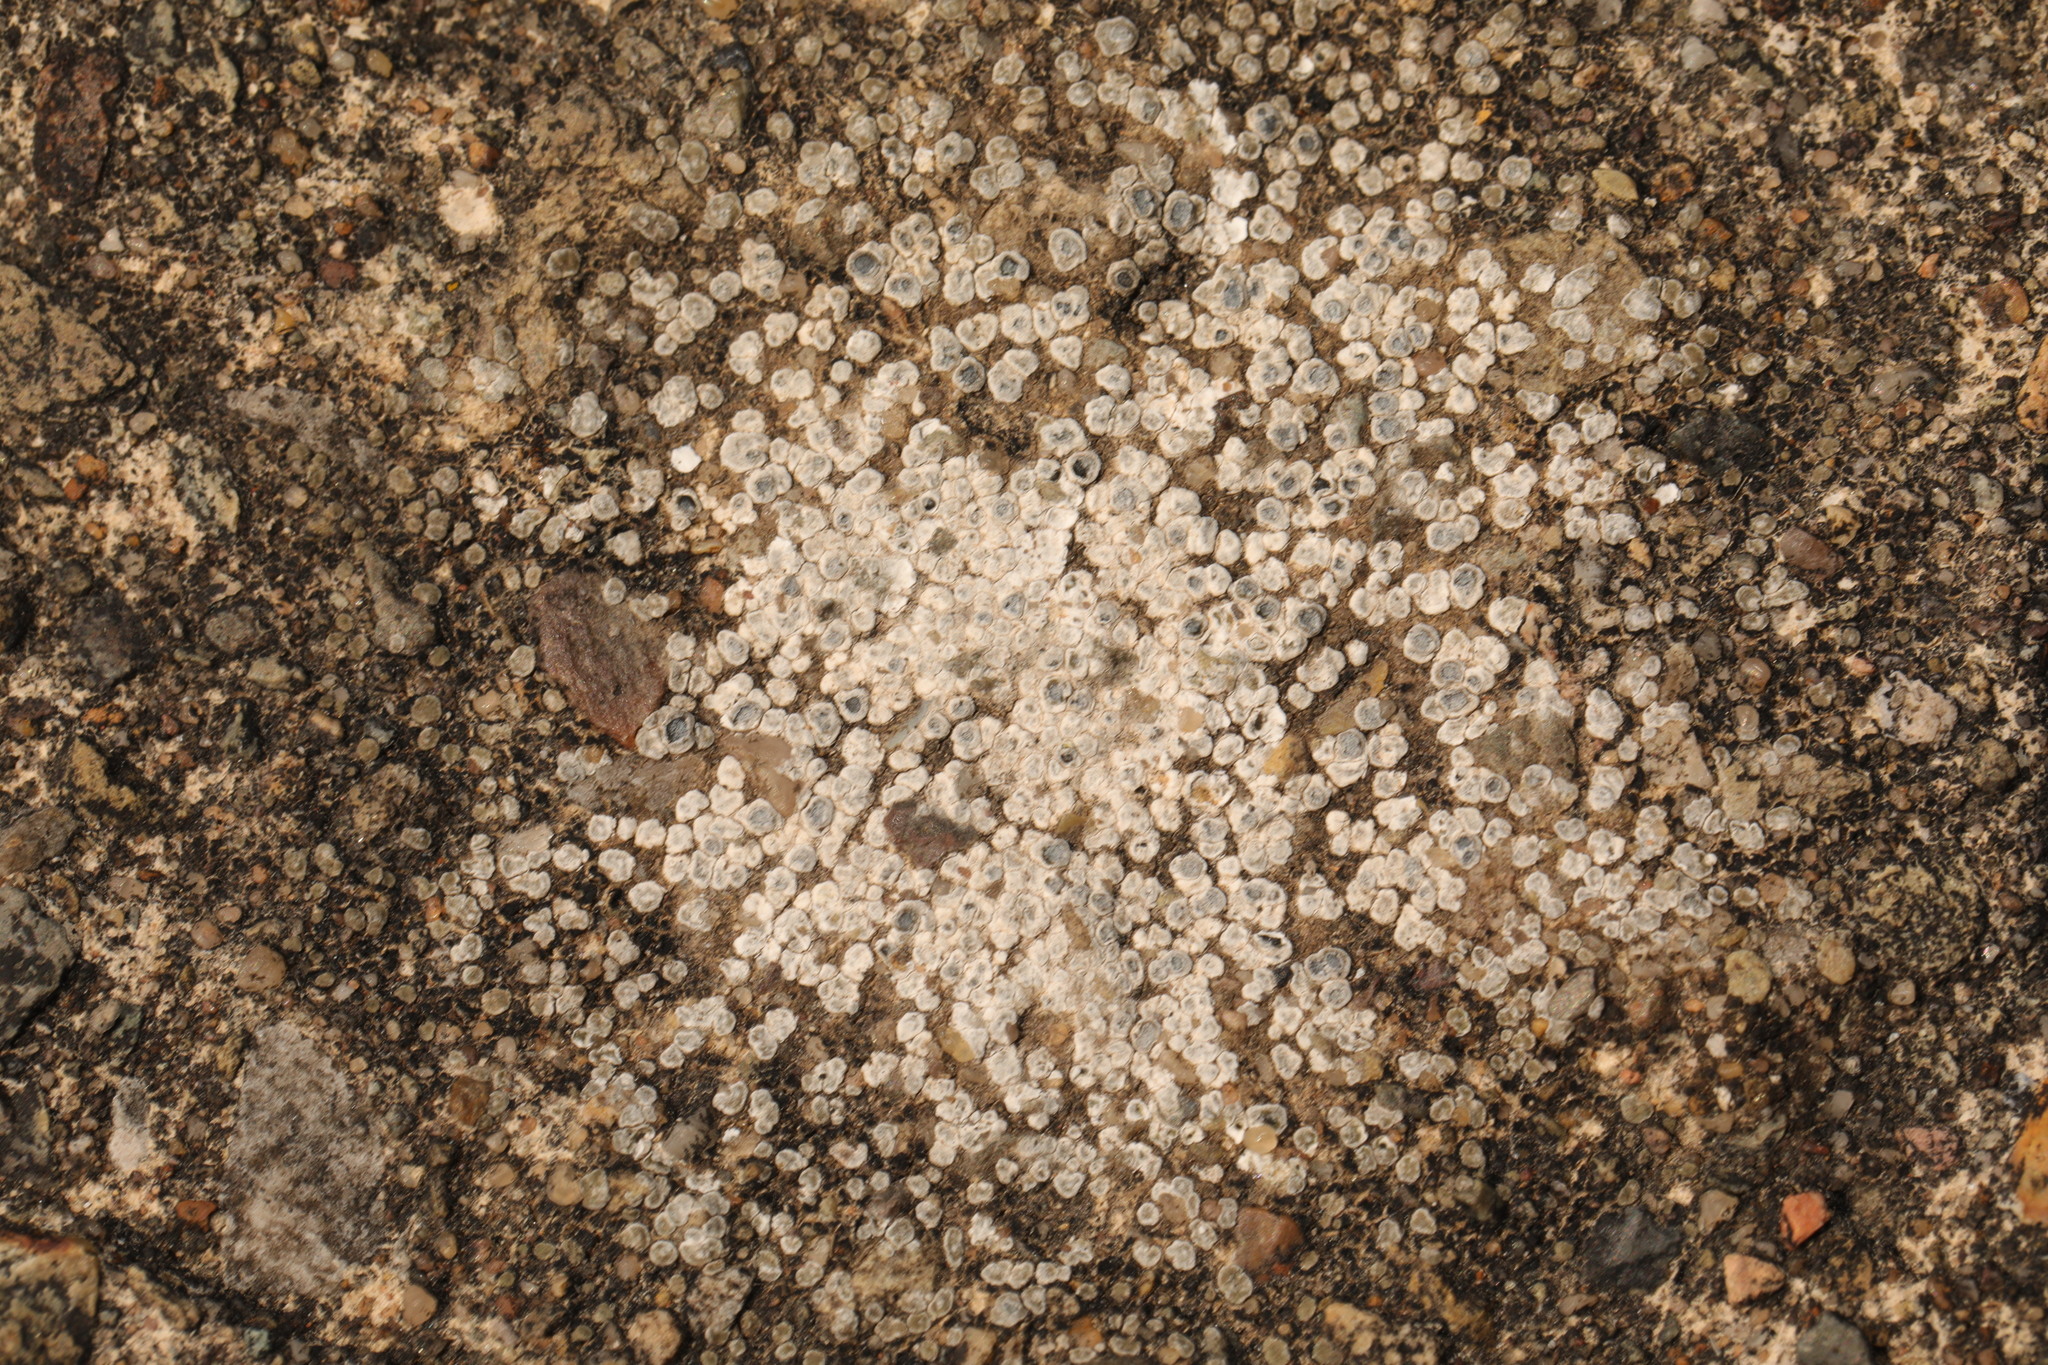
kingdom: Fungi
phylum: Ascomycota
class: Lecanoromycetes
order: Pertusariales
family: Megasporaceae
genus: Circinaria
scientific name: Circinaria contorta
